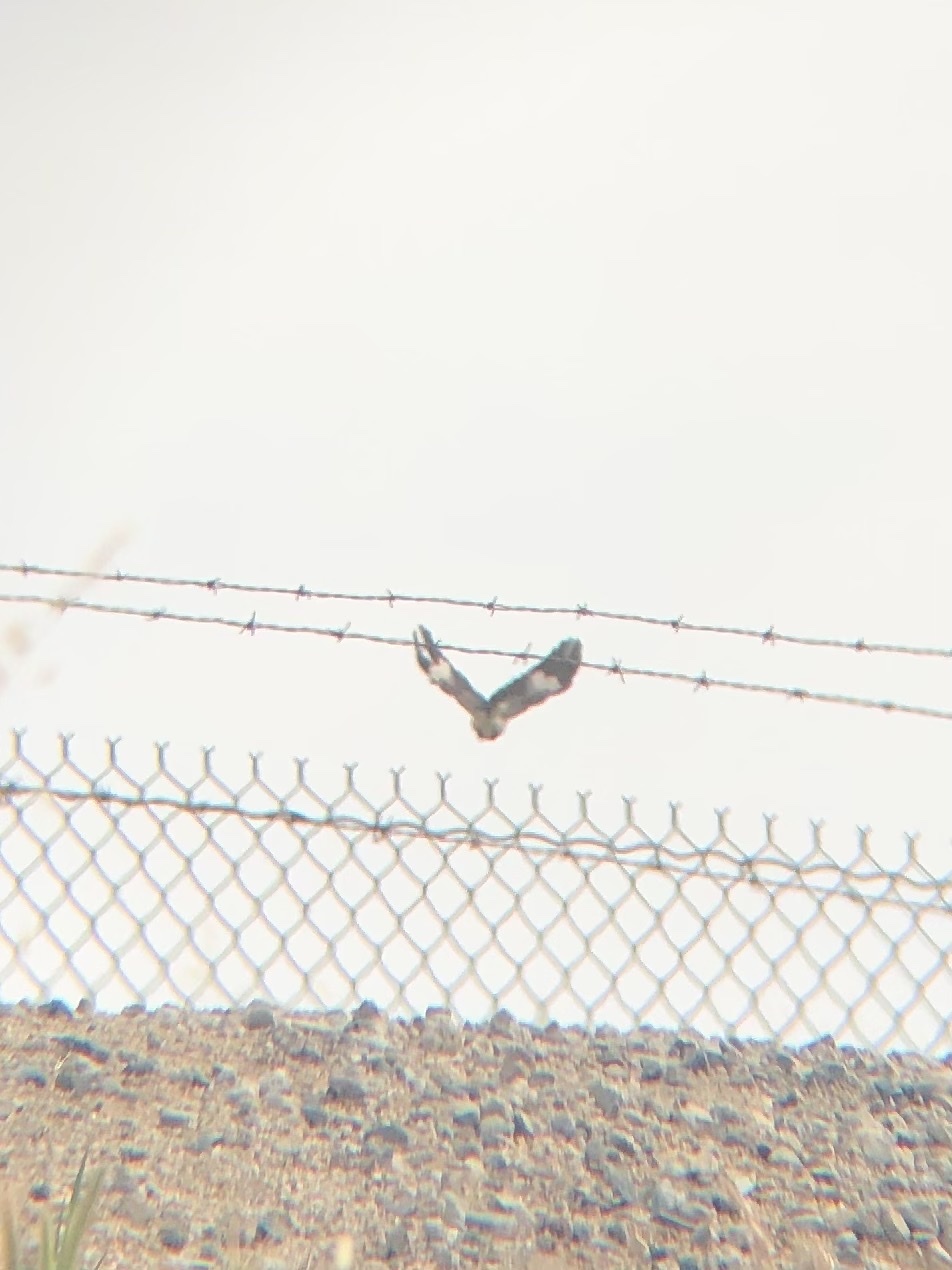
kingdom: Animalia
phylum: Chordata
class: Aves
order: Passeriformes
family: Mimidae
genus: Mimus
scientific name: Mimus polyglottos
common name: Northern mockingbird
